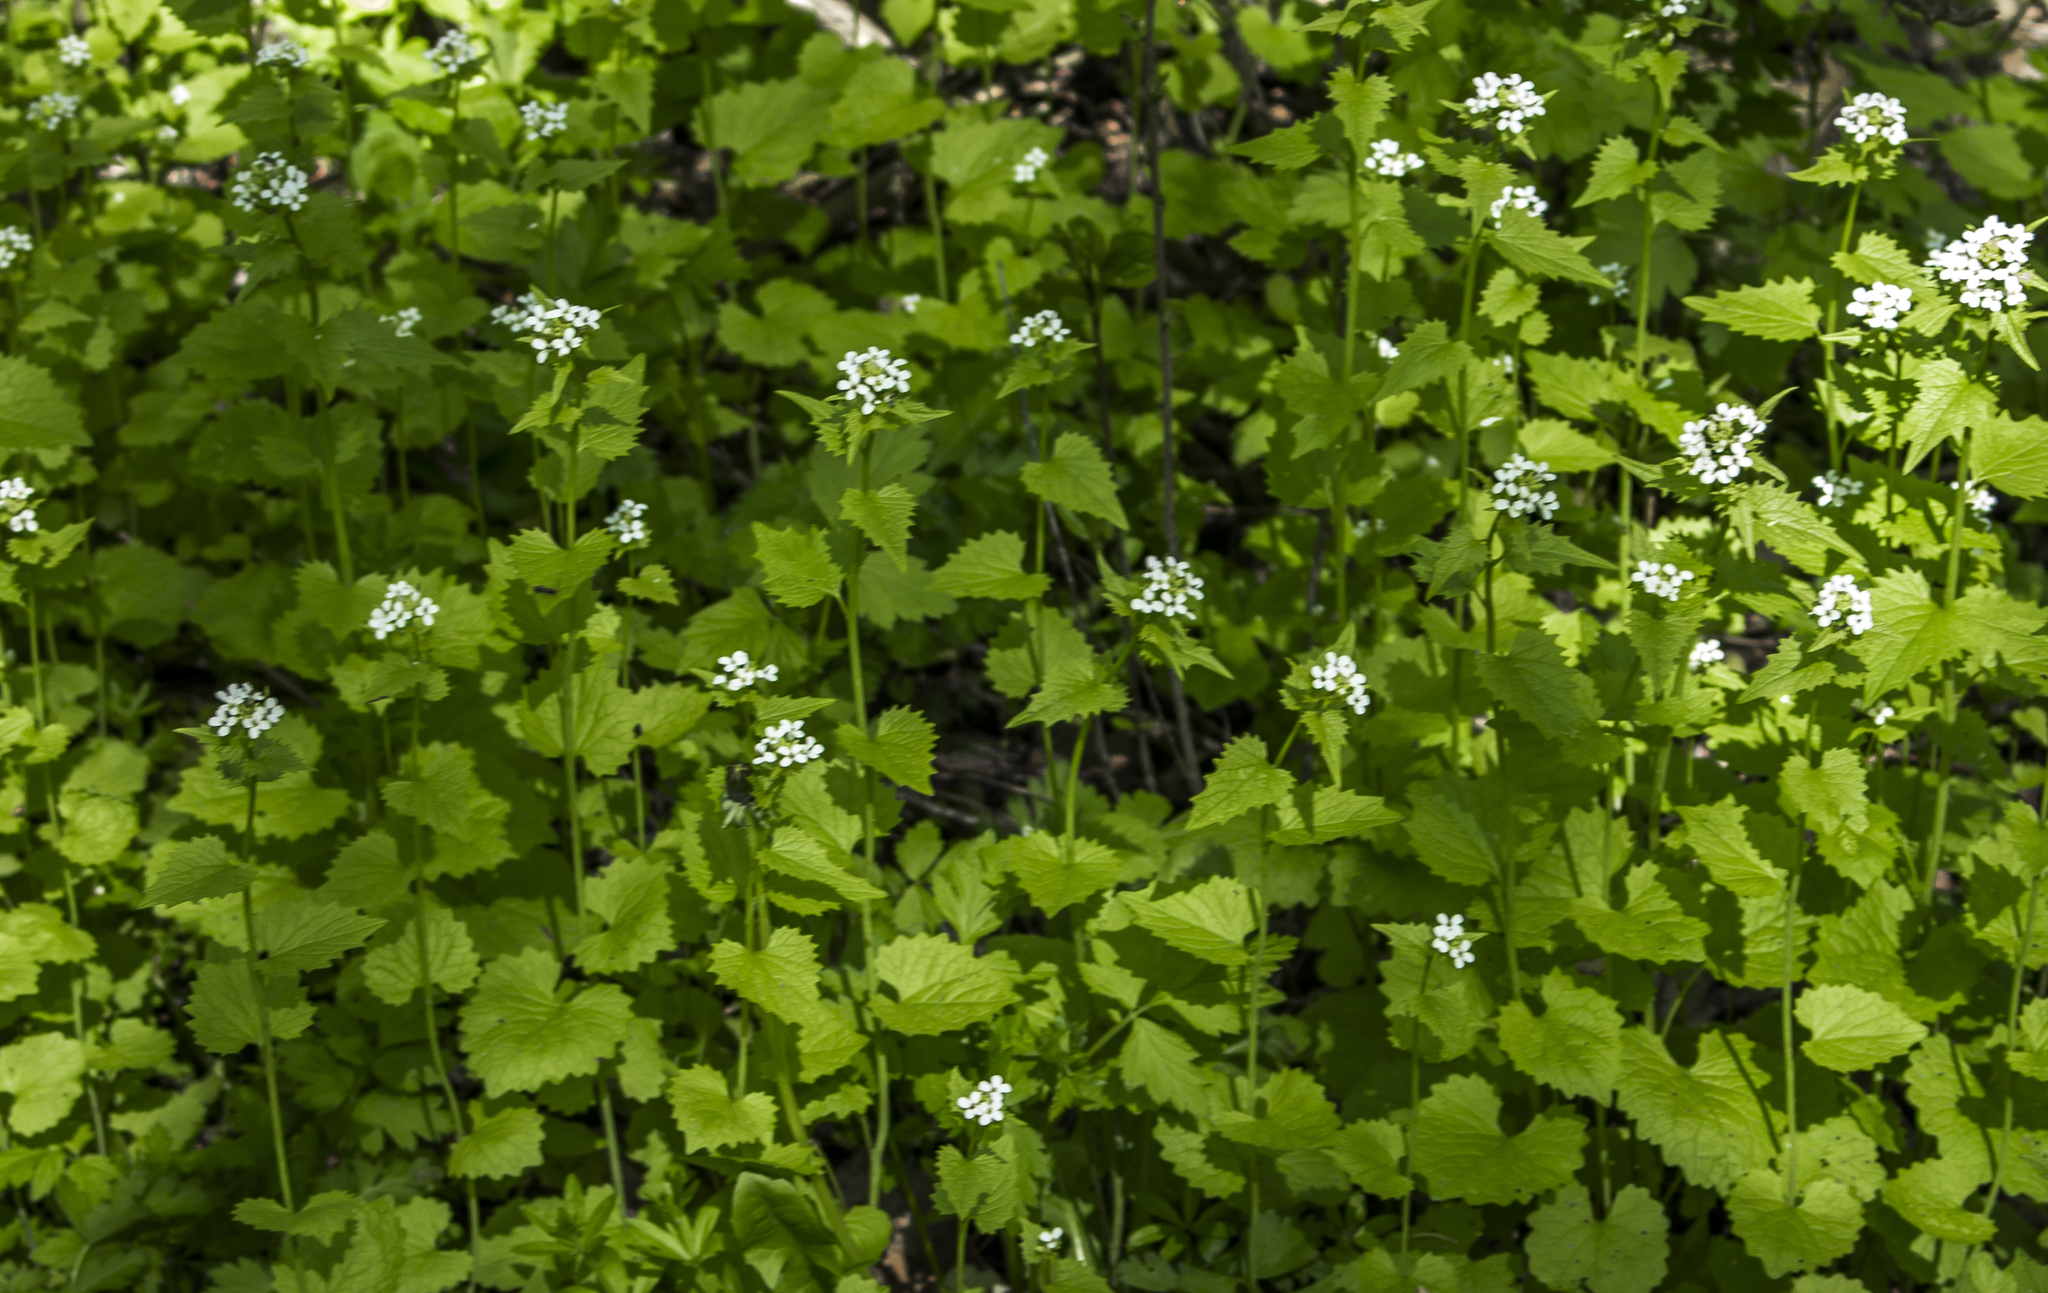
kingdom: Plantae
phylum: Tracheophyta
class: Magnoliopsida
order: Brassicales
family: Brassicaceae
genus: Alliaria
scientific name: Alliaria petiolata
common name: Garlic mustard
